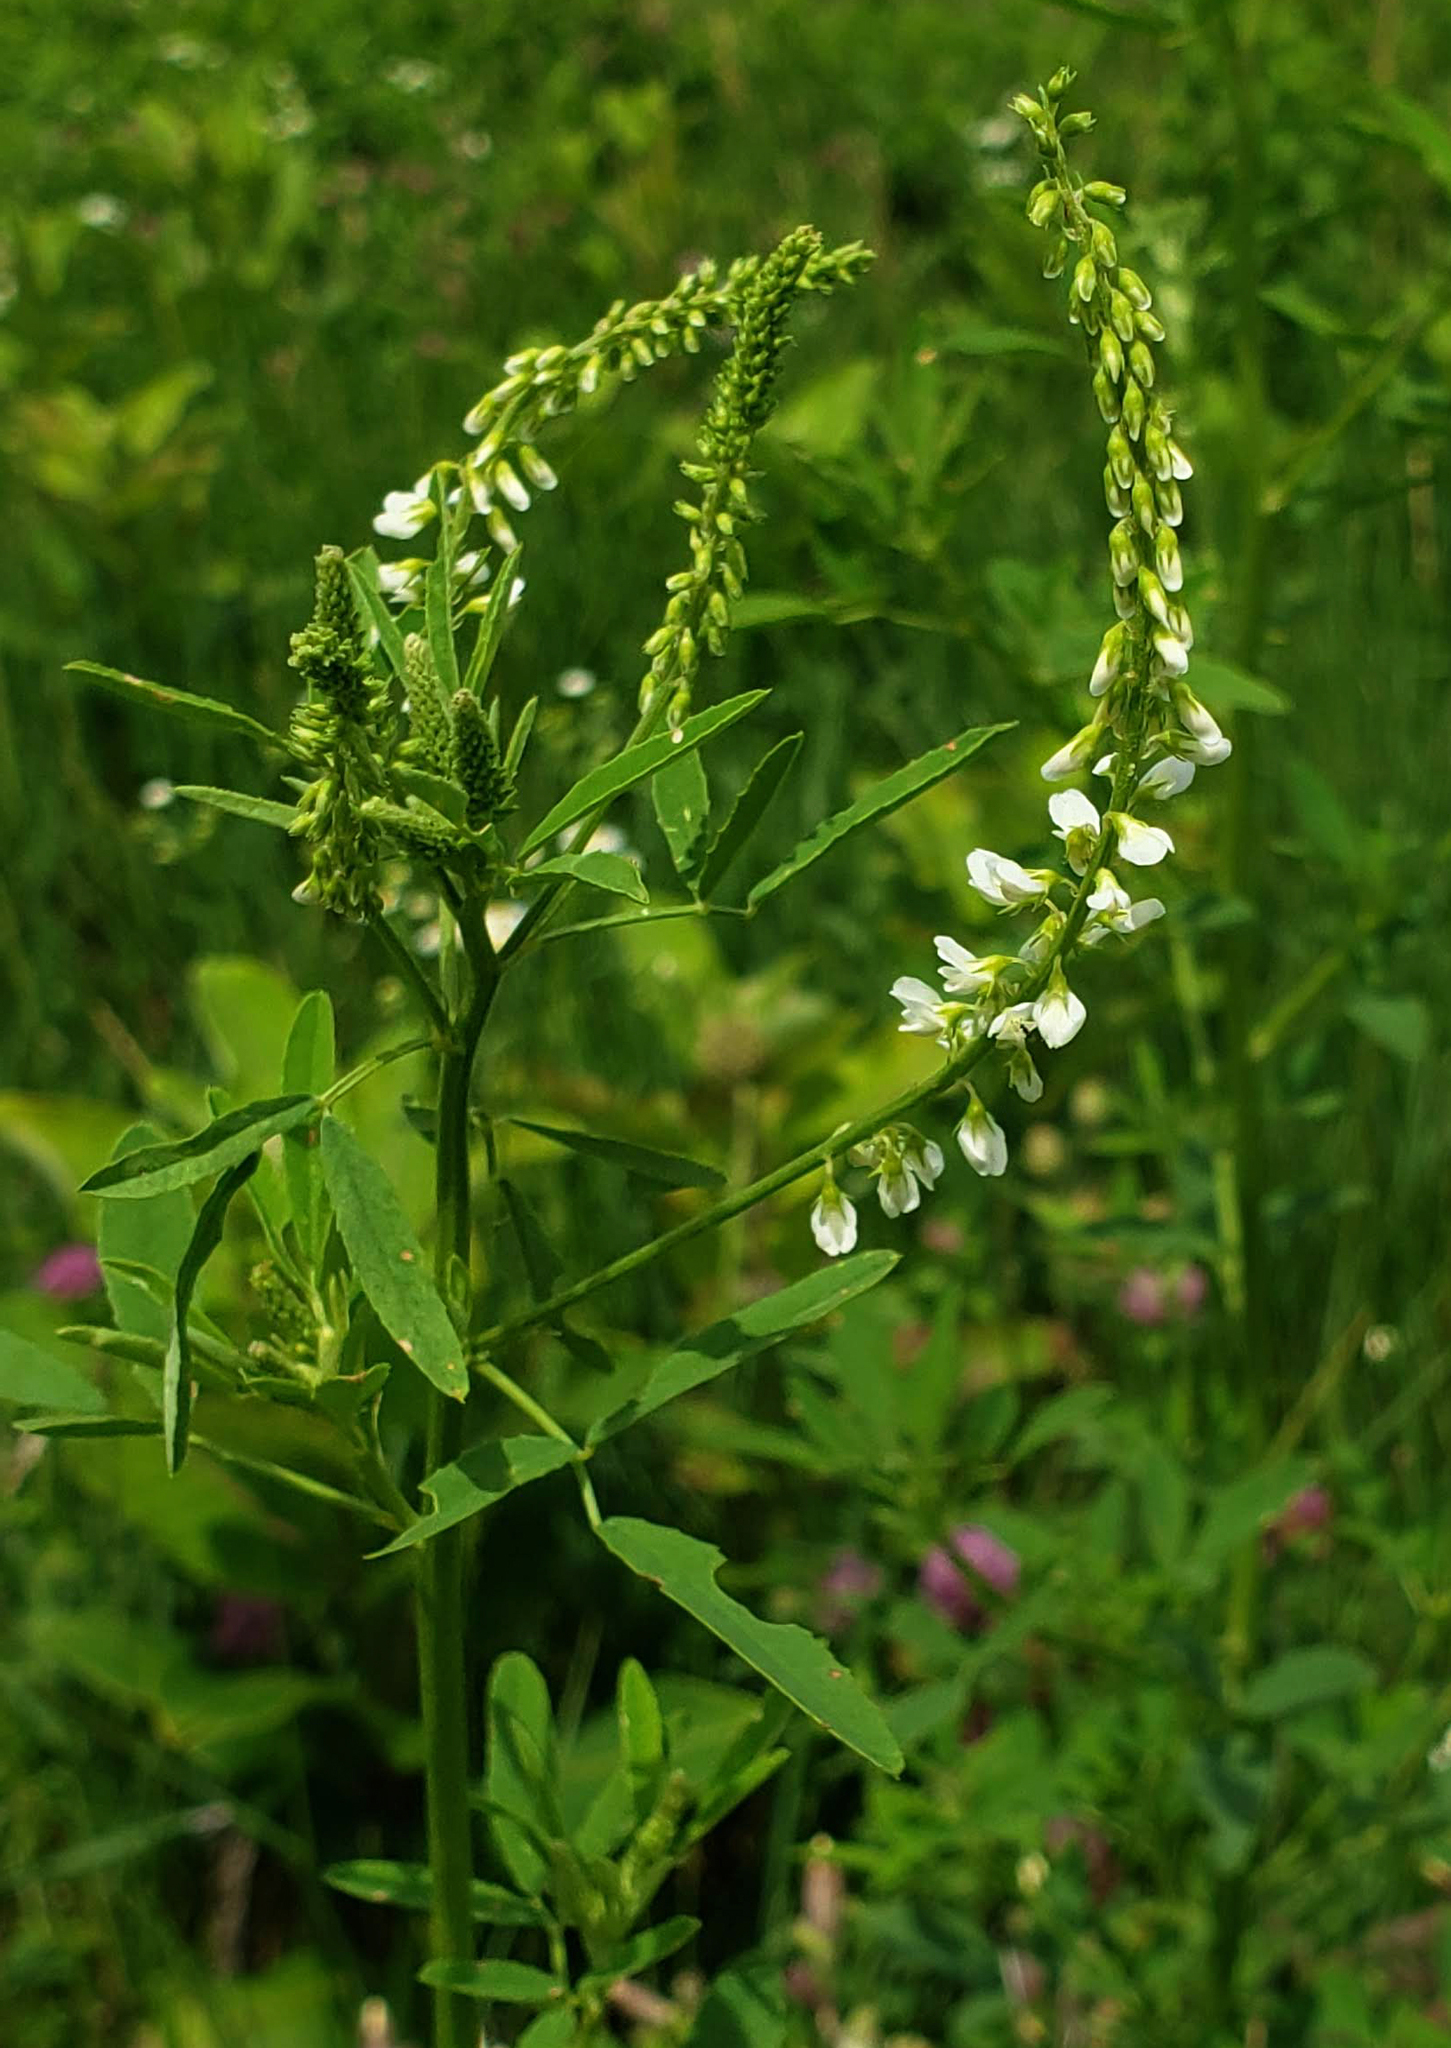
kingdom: Plantae
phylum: Tracheophyta
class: Magnoliopsida
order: Fabales
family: Fabaceae
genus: Melilotus
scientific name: Melilotus albus
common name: White melilot
